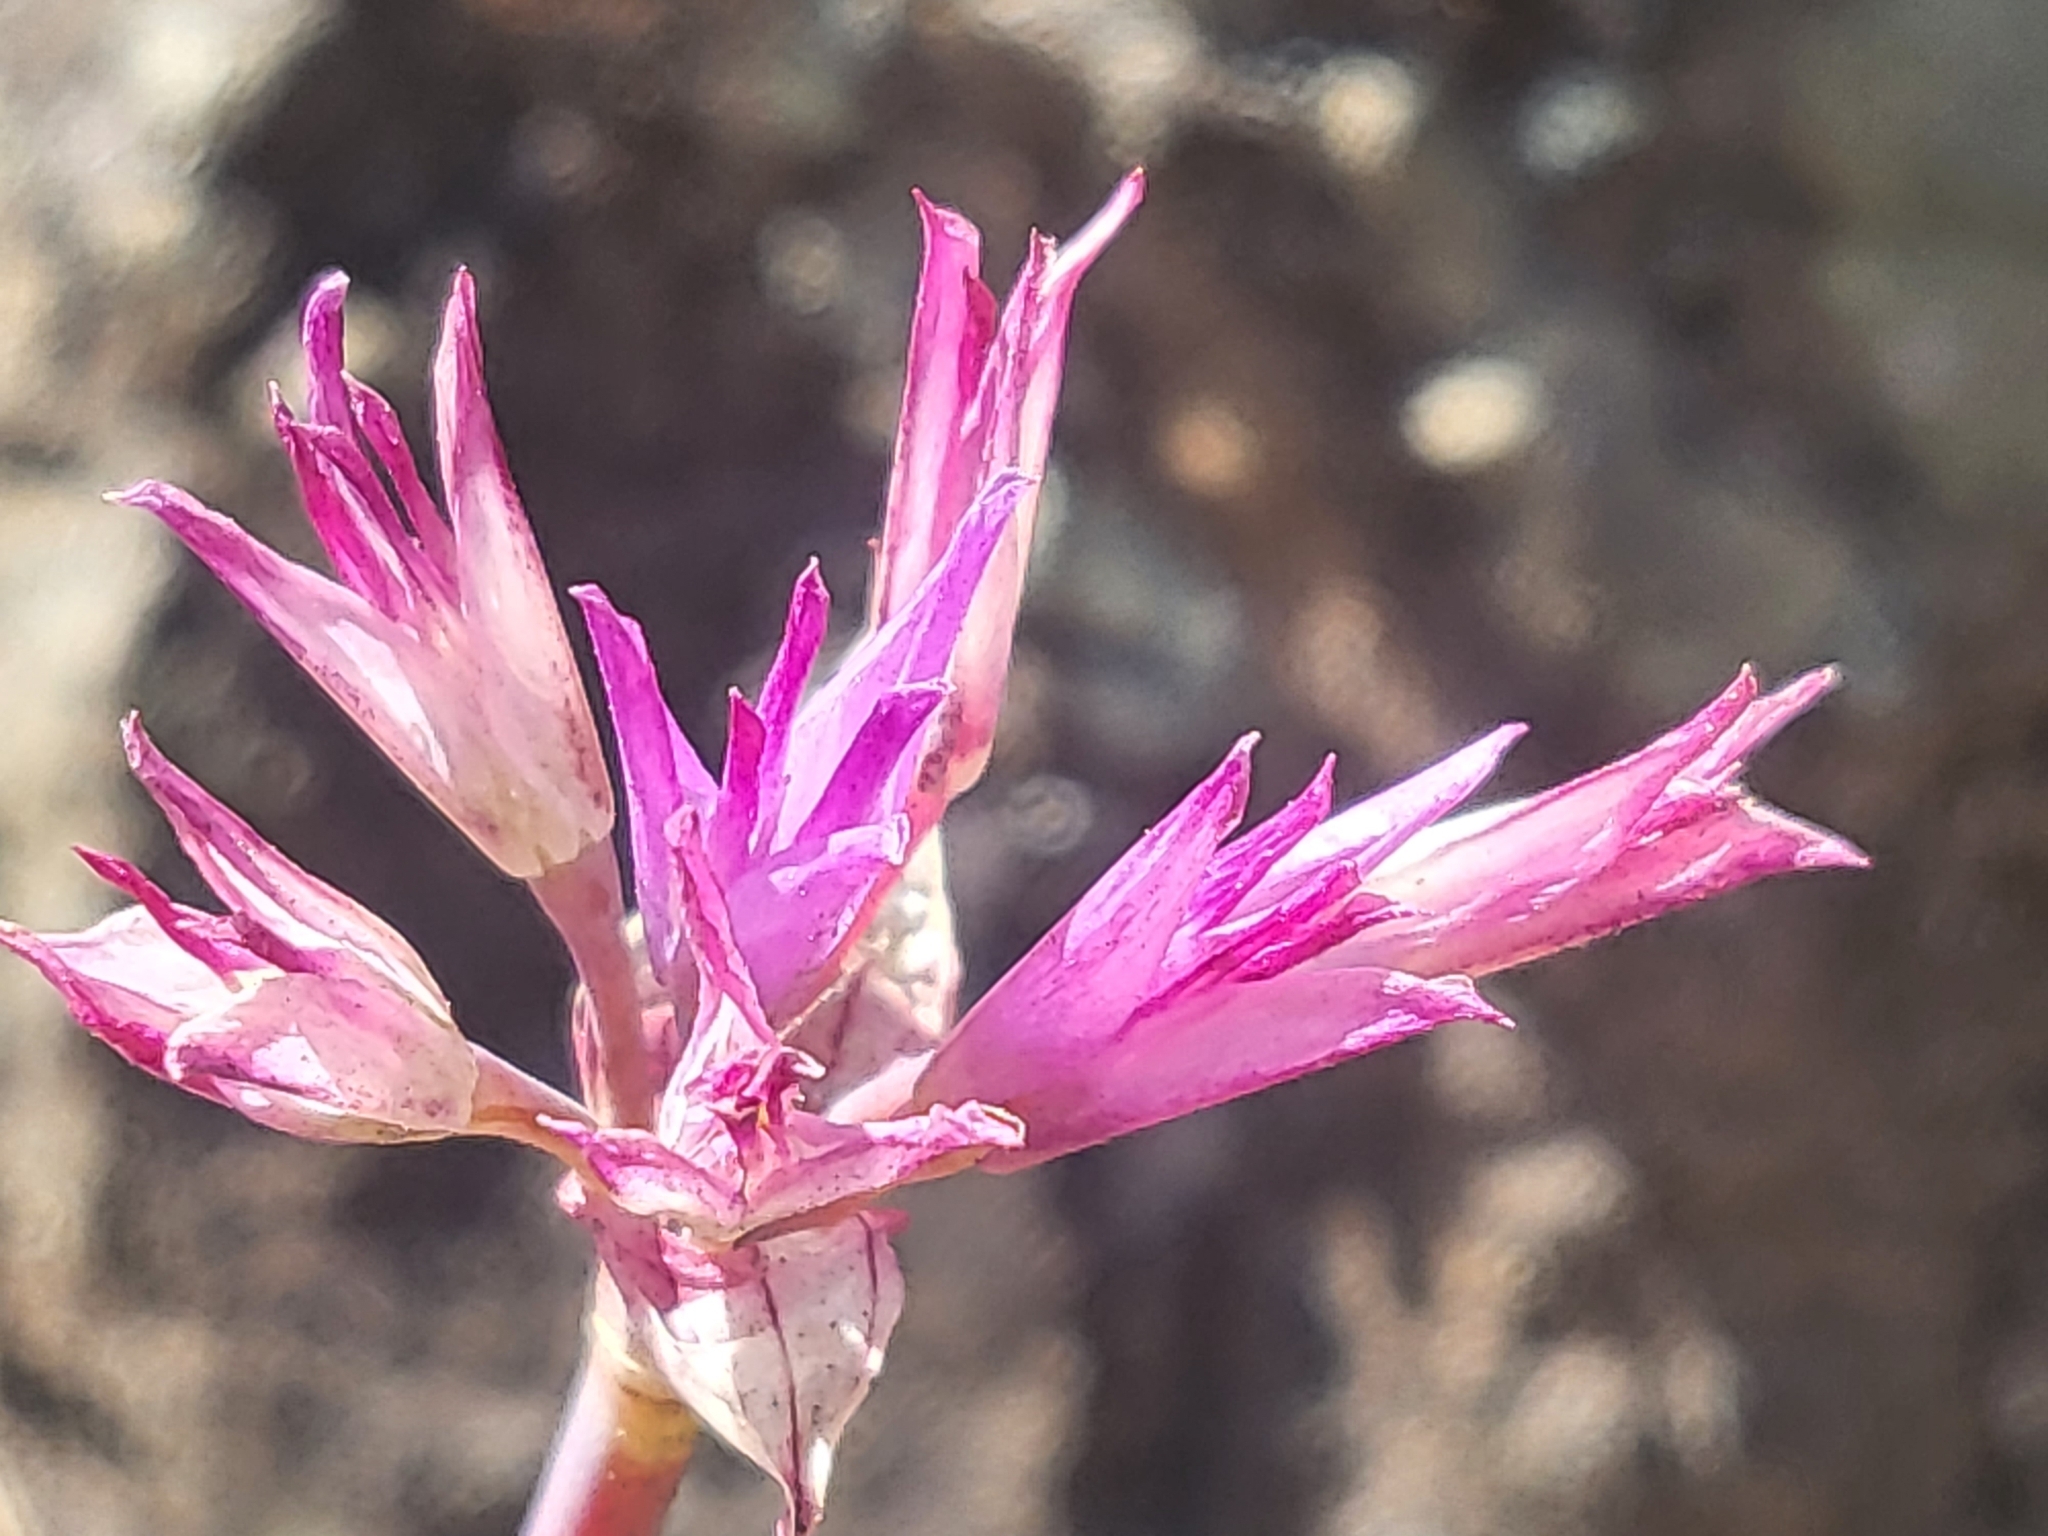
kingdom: Plantae
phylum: Tracheophyta
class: Liliopsida
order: Asparagales
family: Amaryllidaceae
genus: Allium
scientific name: Allium dichlamydeum
